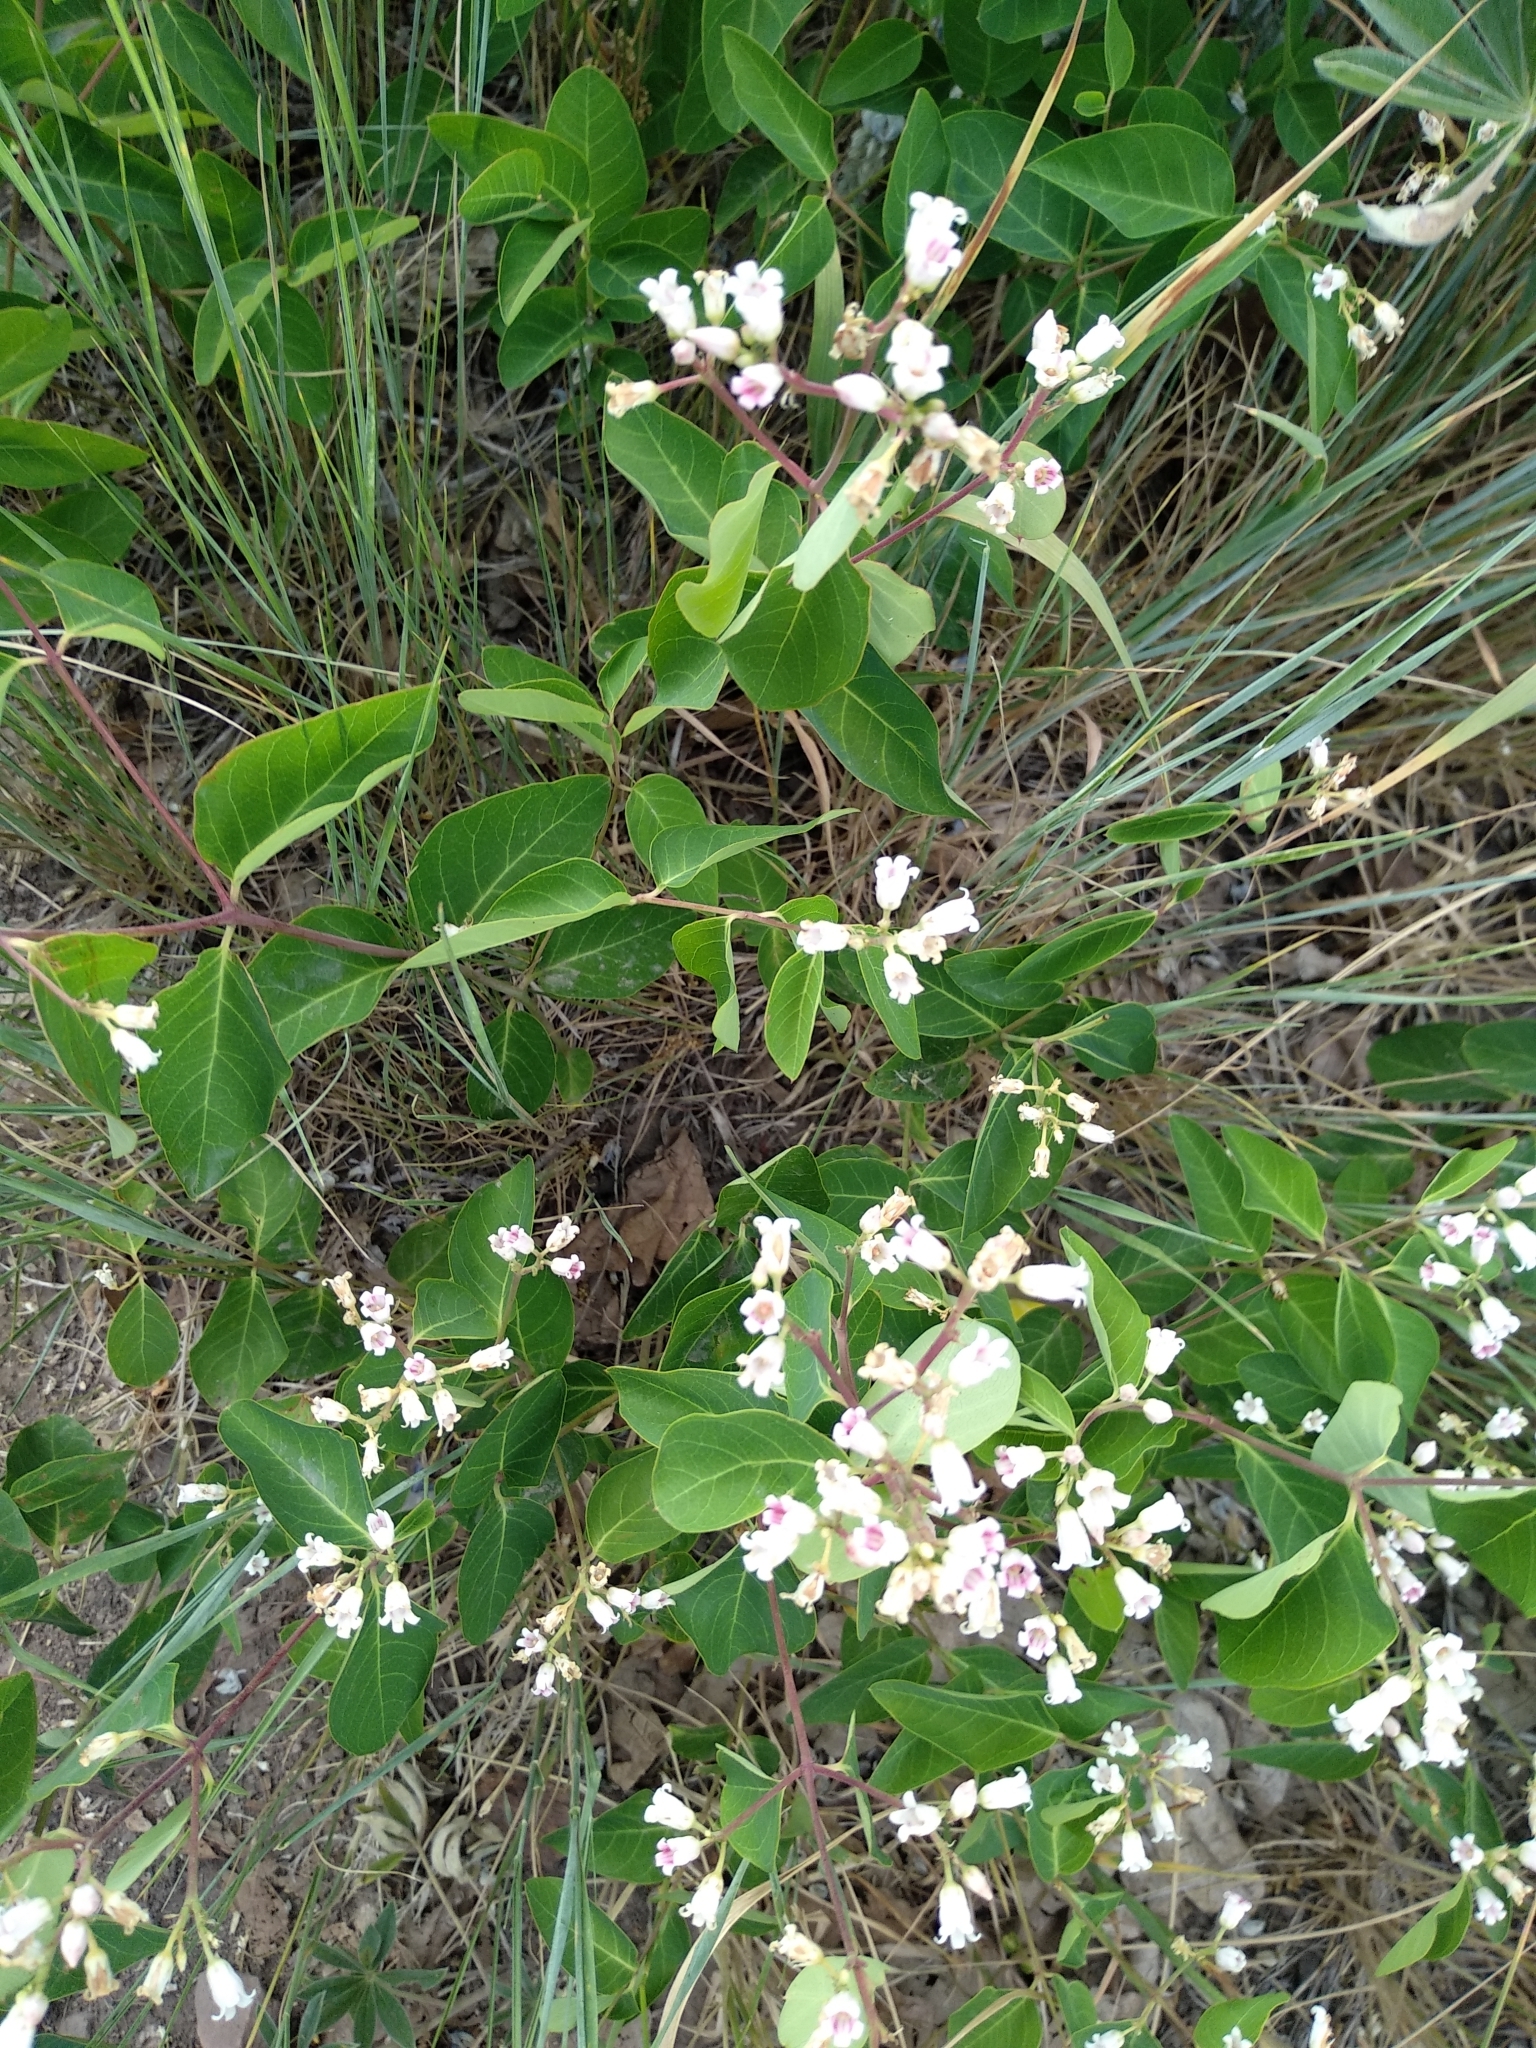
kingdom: Plantae
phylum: Tracheophyta
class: Magnoliopsida
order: Gentianales
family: Apocynaceae
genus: Apocynum
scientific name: Apocynum androsaemifolium
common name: Spreading dogbane
